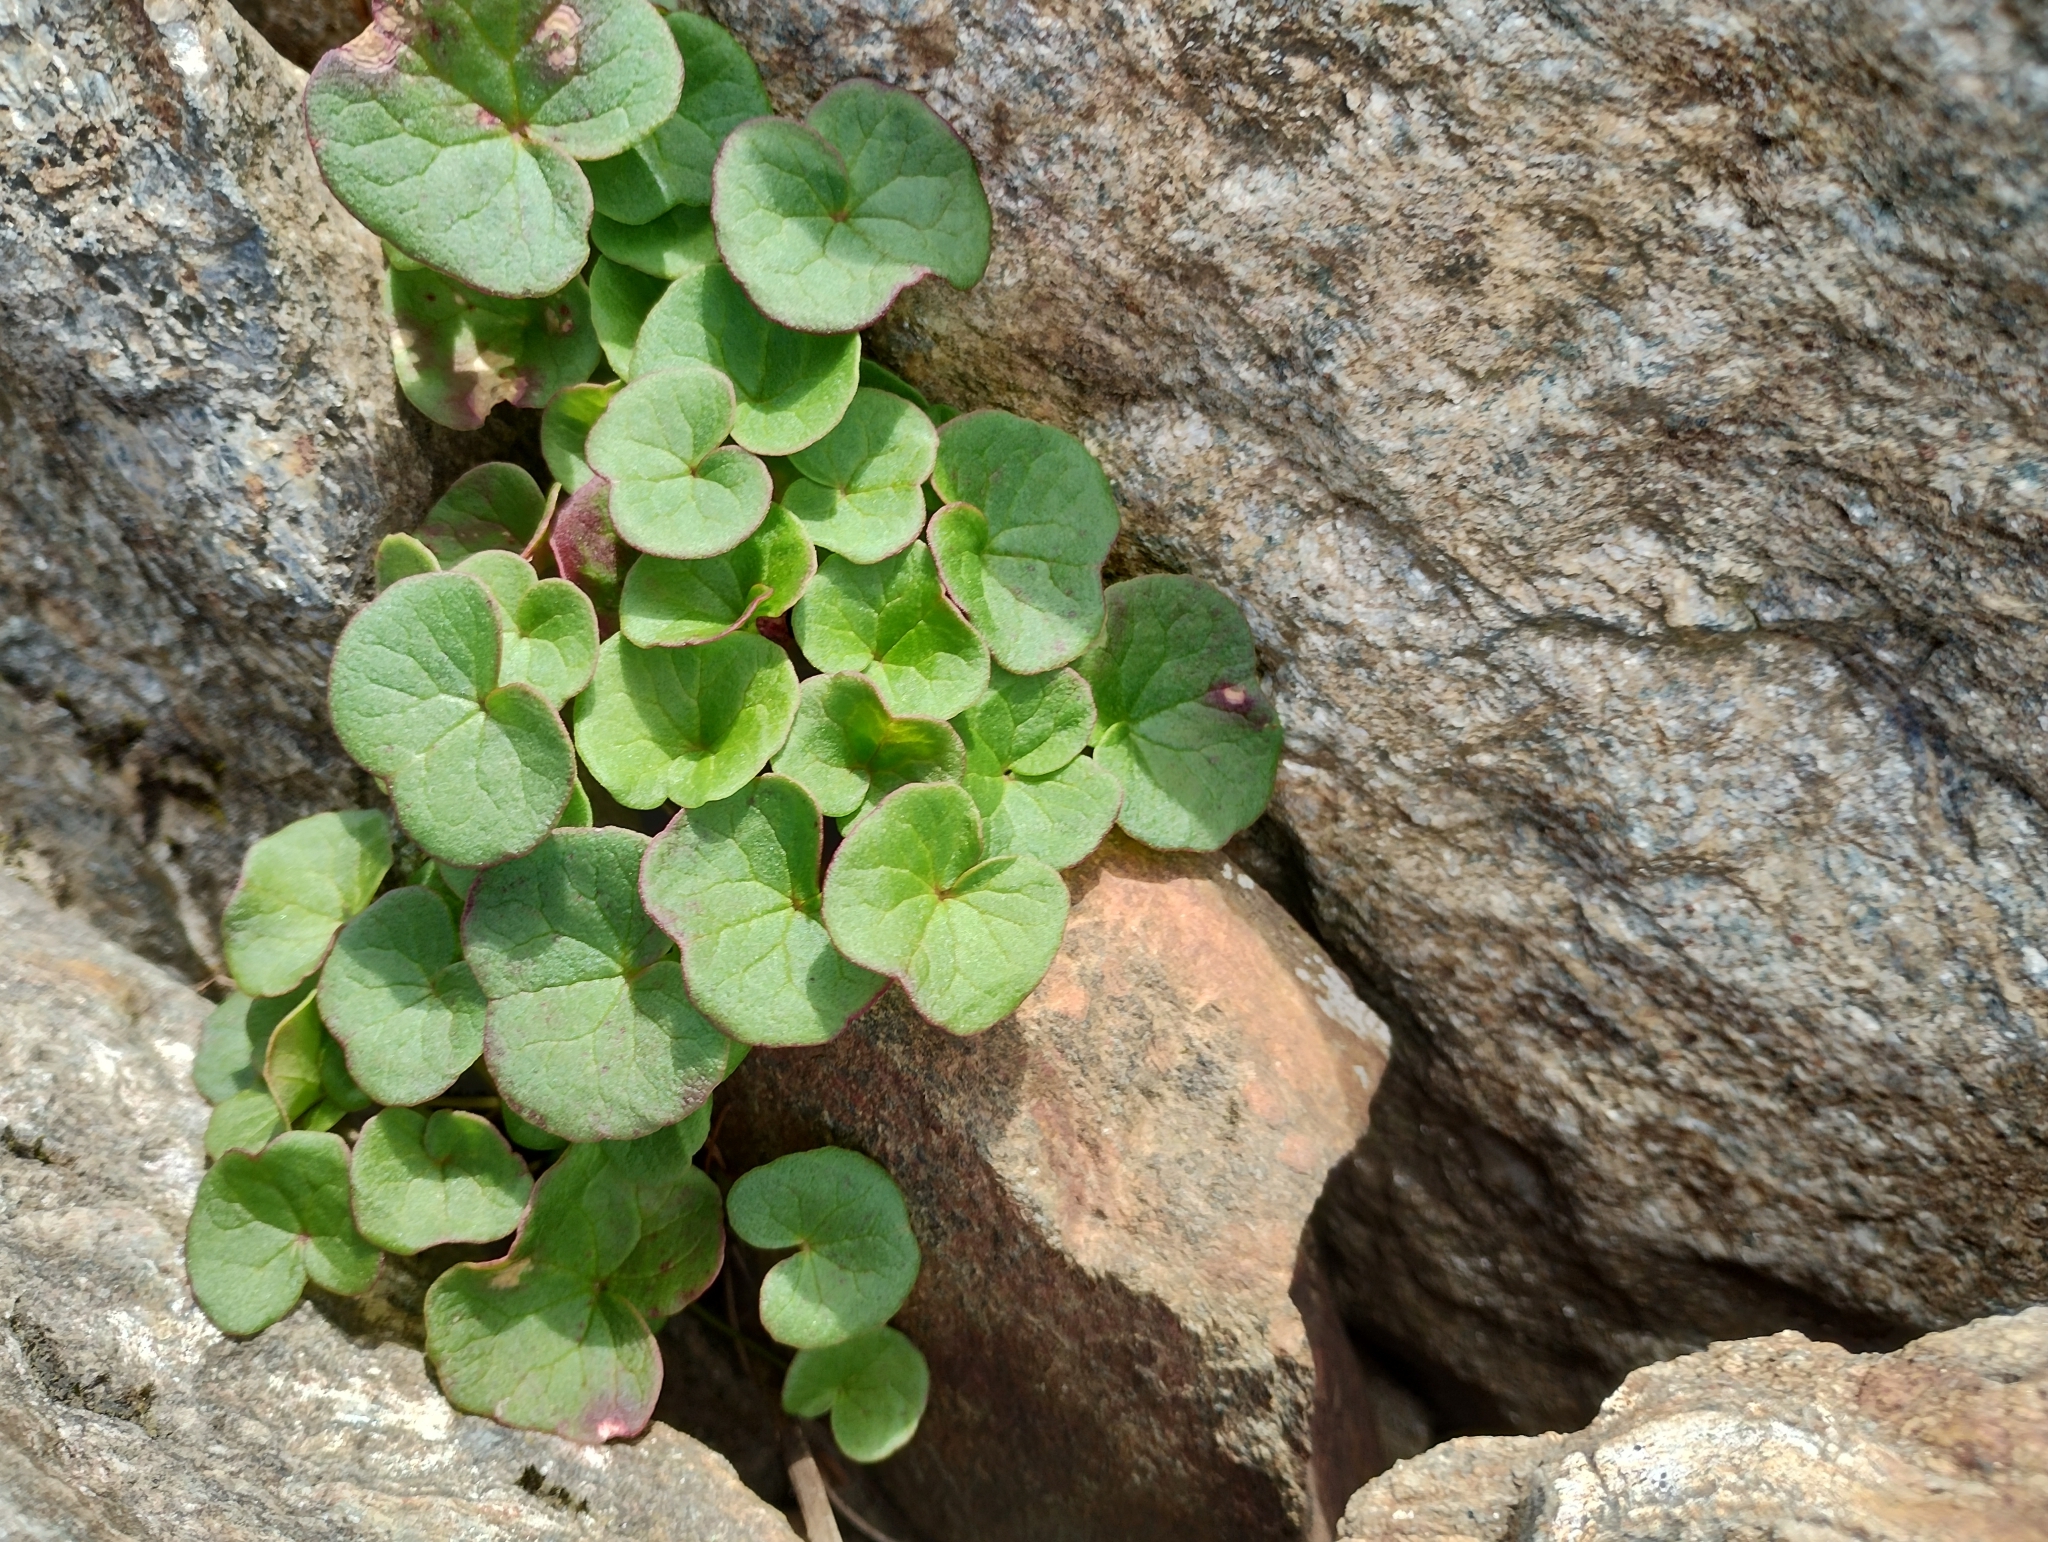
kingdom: Plantae
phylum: Tracheophyta
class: Magnoliopsida
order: Caryophyllales
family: Polygonaceae
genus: Oxyria
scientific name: Oxyria digyna
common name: Alpine mountain-sorrel
